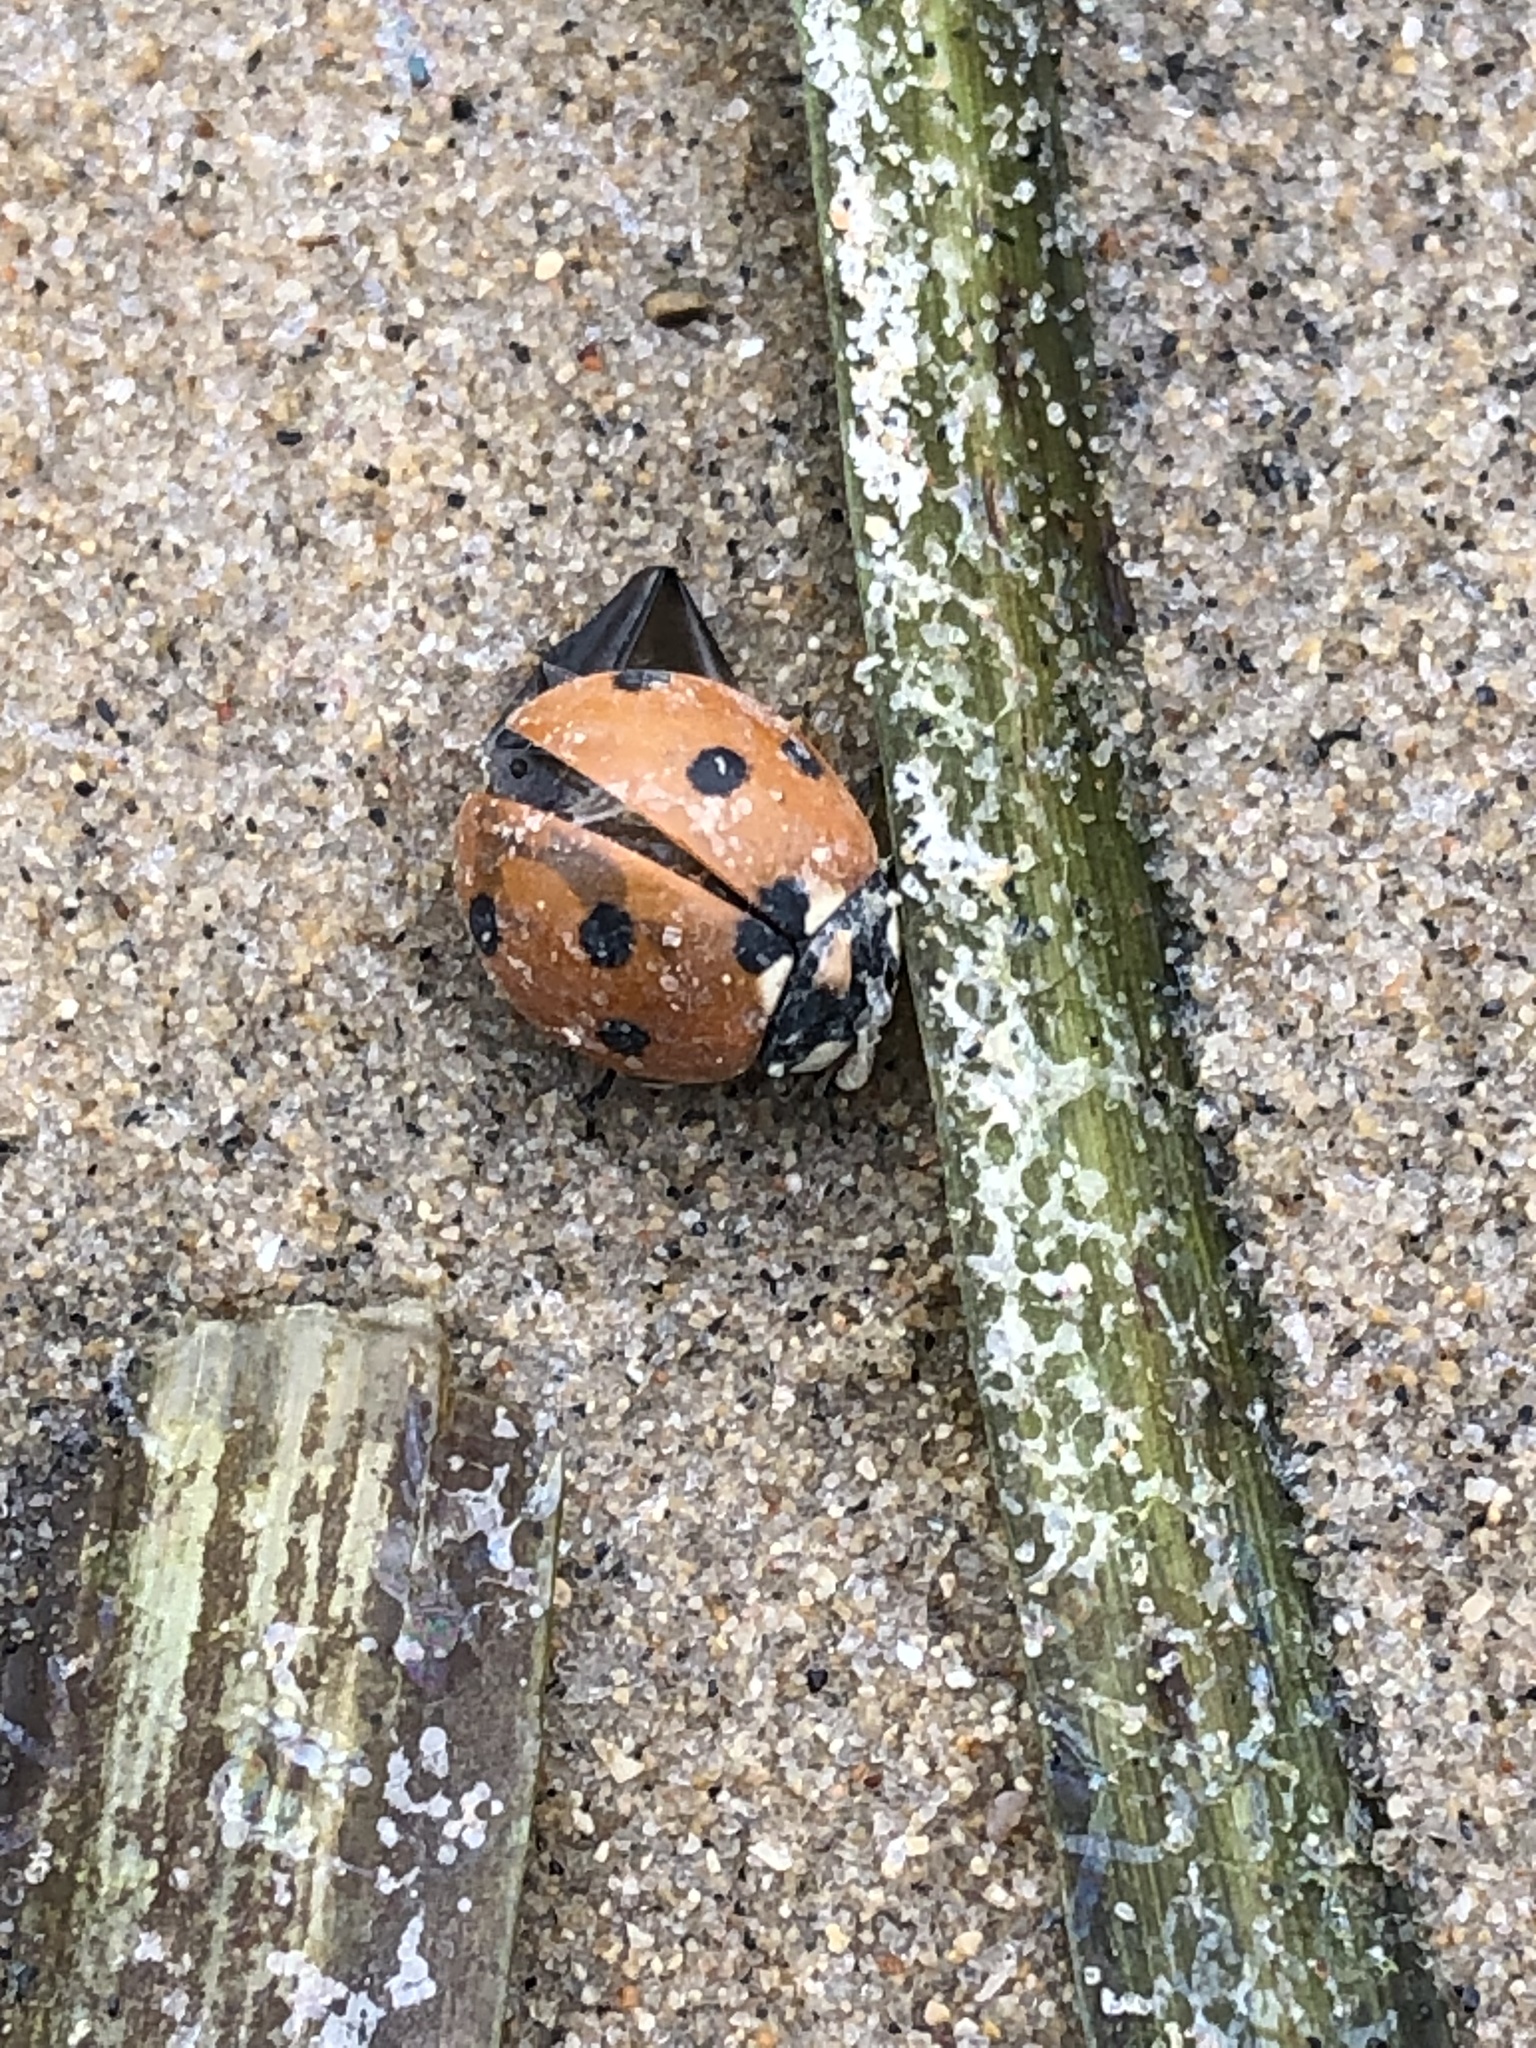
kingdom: Animalia
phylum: Arthropoda
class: Insecta
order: Coleoptera
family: Coccinellidae
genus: Coccinella
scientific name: Coccinella septempunctata
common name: Sevenspotted lady beetle
